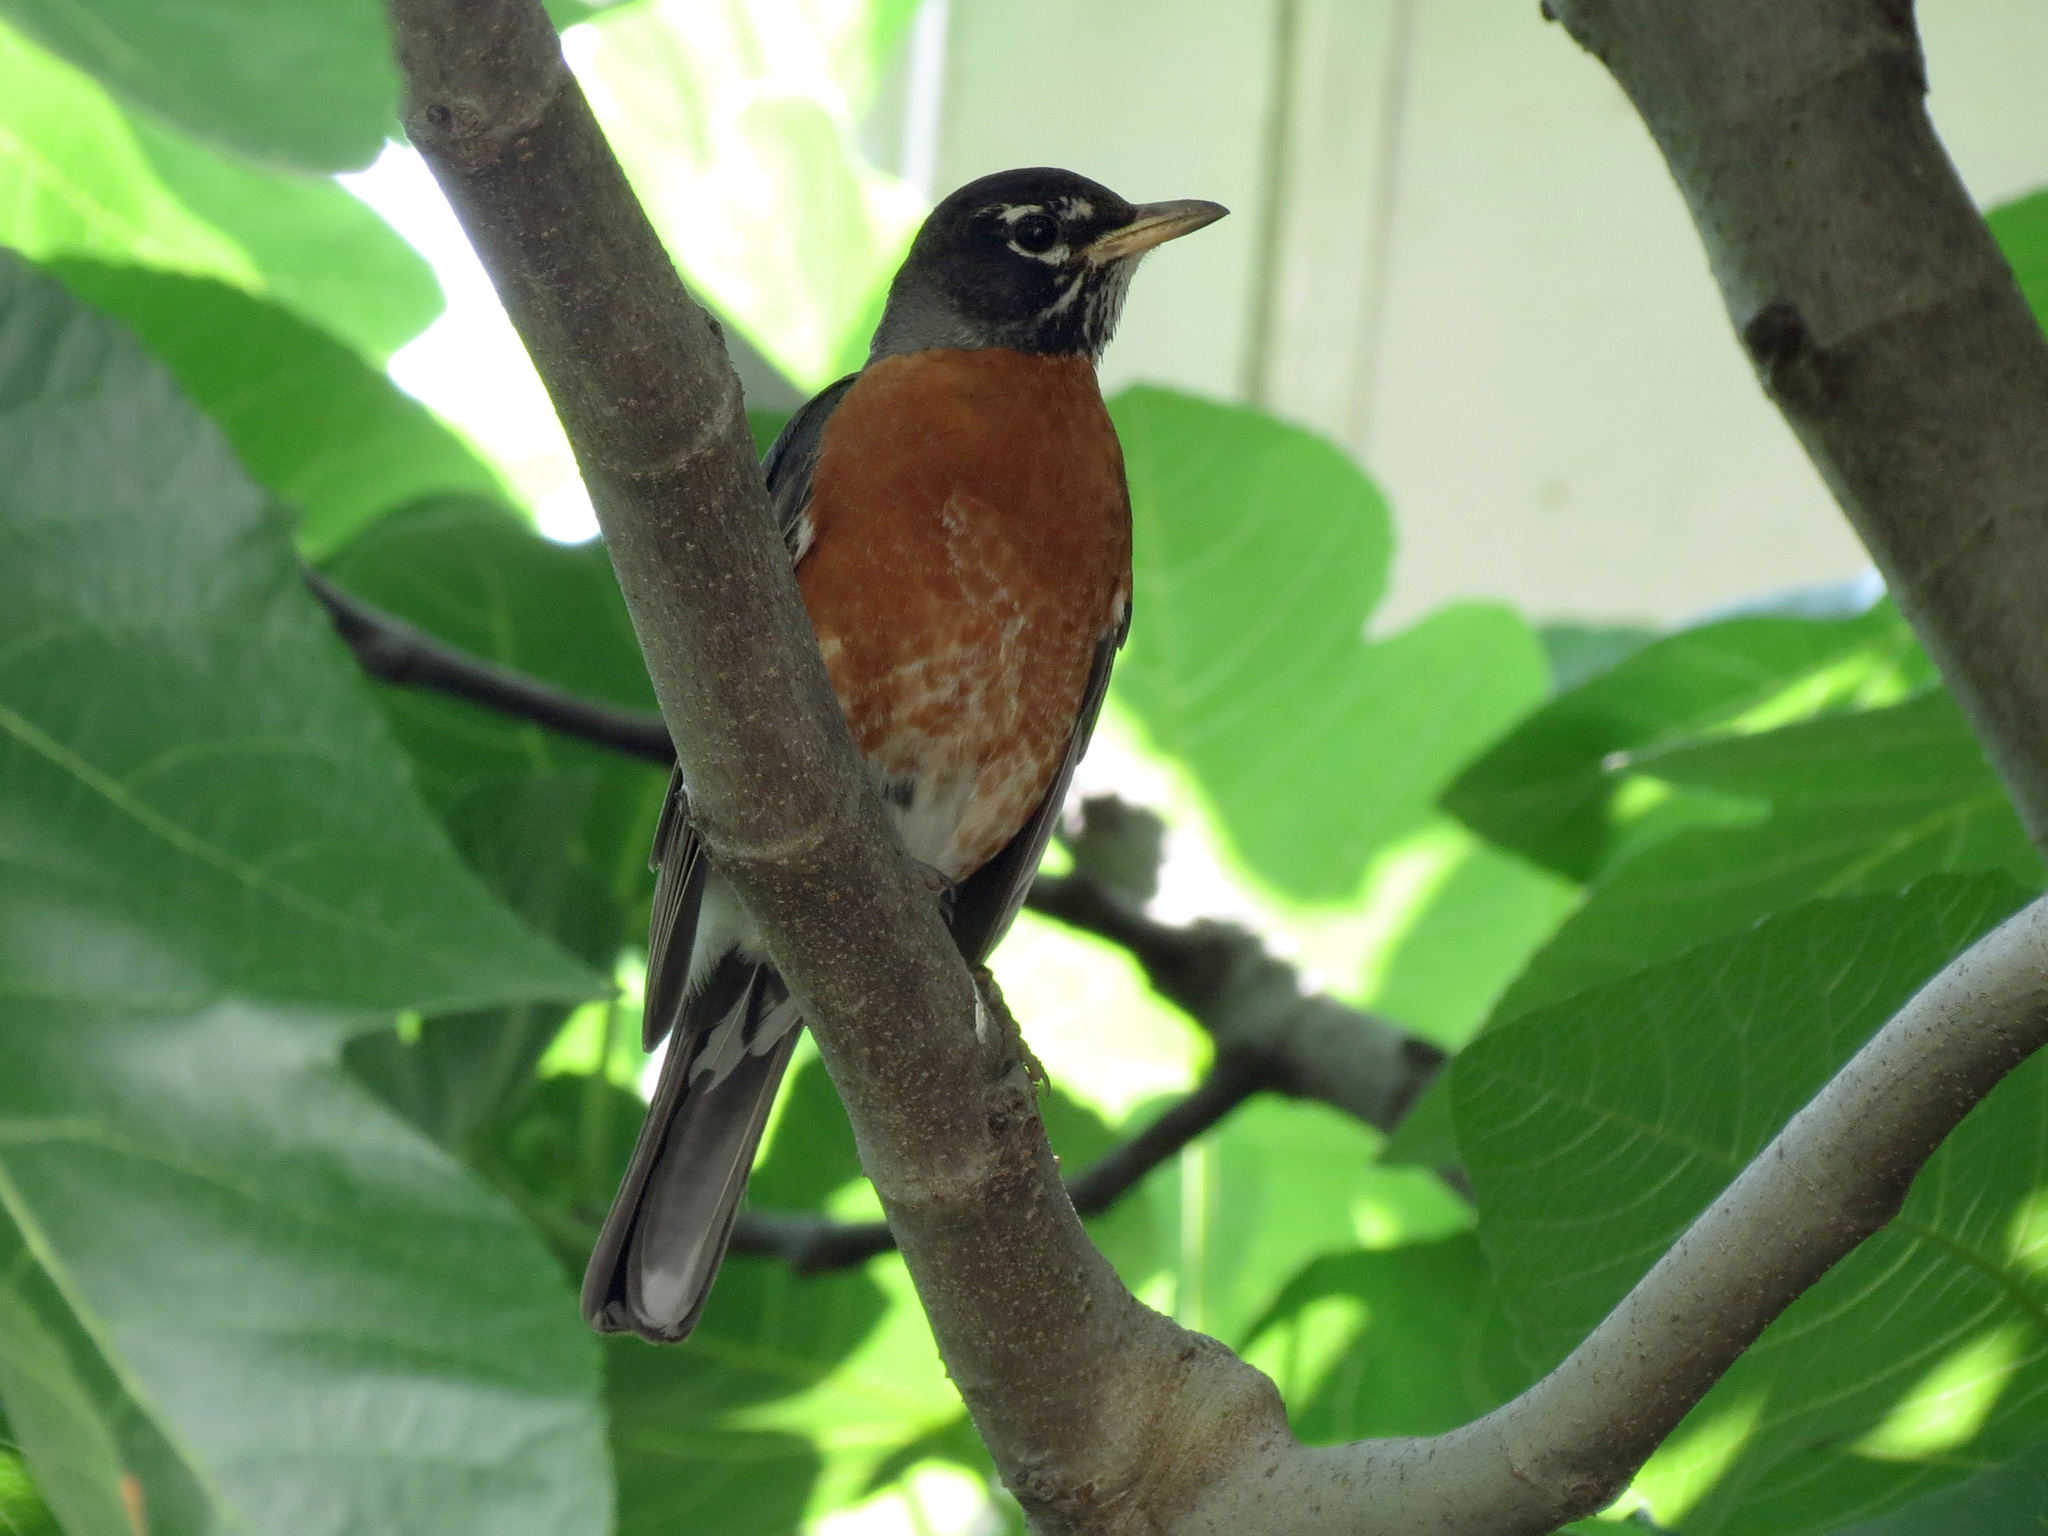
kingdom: Animalia
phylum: Chordata
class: Aves
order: Passeriformes
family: Turdidae
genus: Turdus
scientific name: Turdus migratorius
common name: American robin
